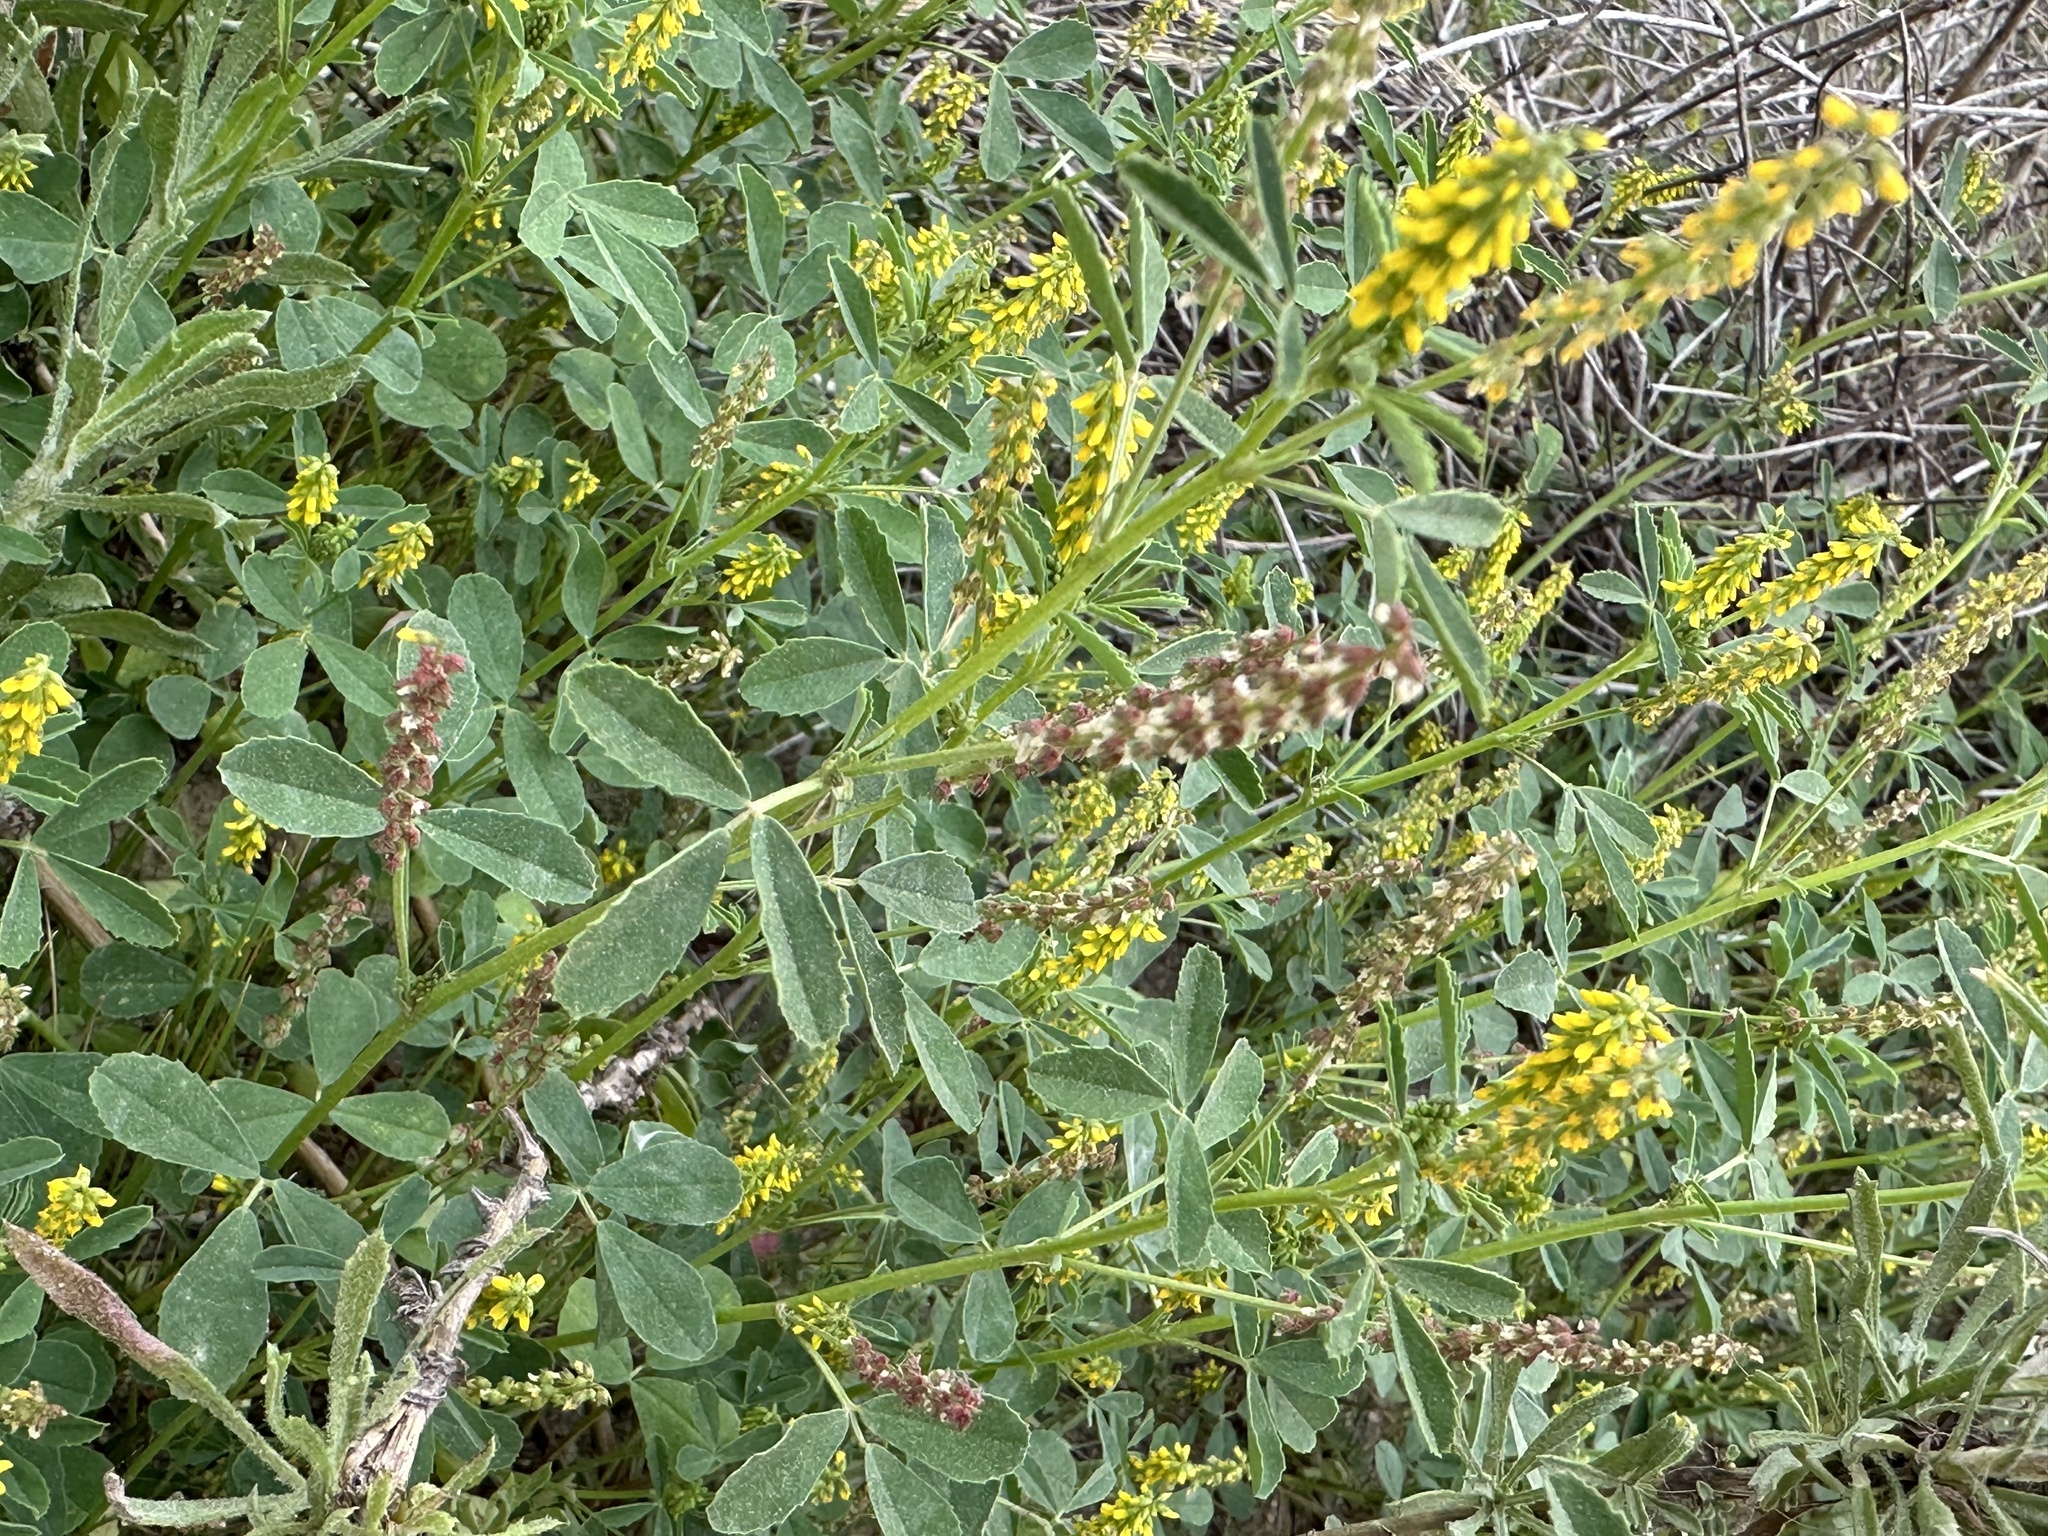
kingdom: Plantae
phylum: Tracheophyta
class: Magnoliopsida
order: Fabales
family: Fabaceae
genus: Melilotus
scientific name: Melilotus indicus
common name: Small melilot
